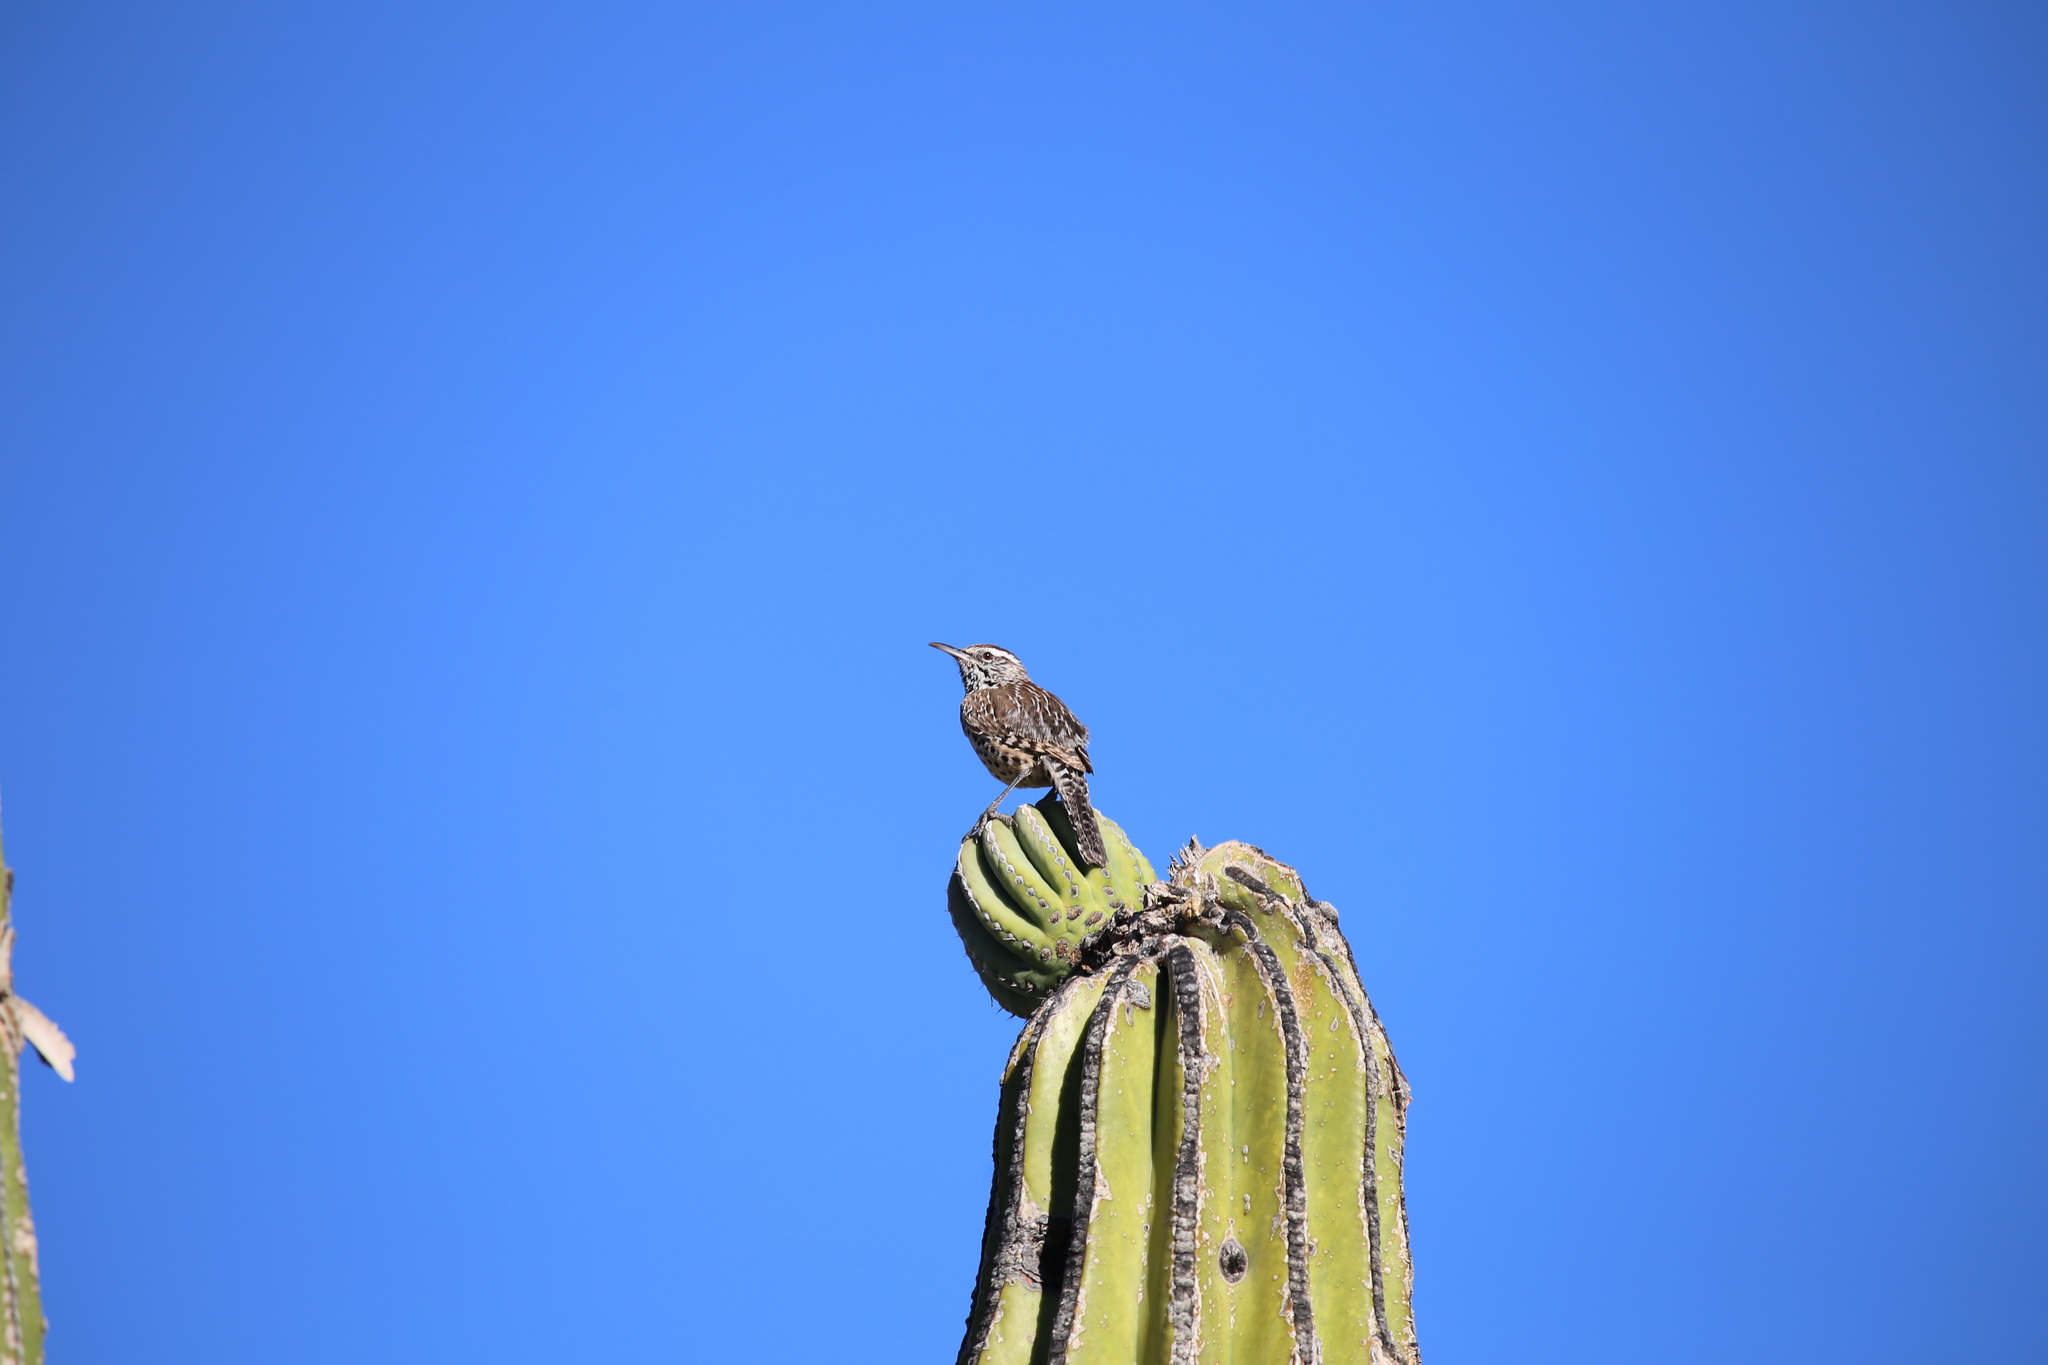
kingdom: Animalia
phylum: Chordata
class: Aves
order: Passeriformes
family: Troglodytidae
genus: Campylorhynchus
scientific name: Campylorhynchus brunneicapillus
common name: Cactus wren
